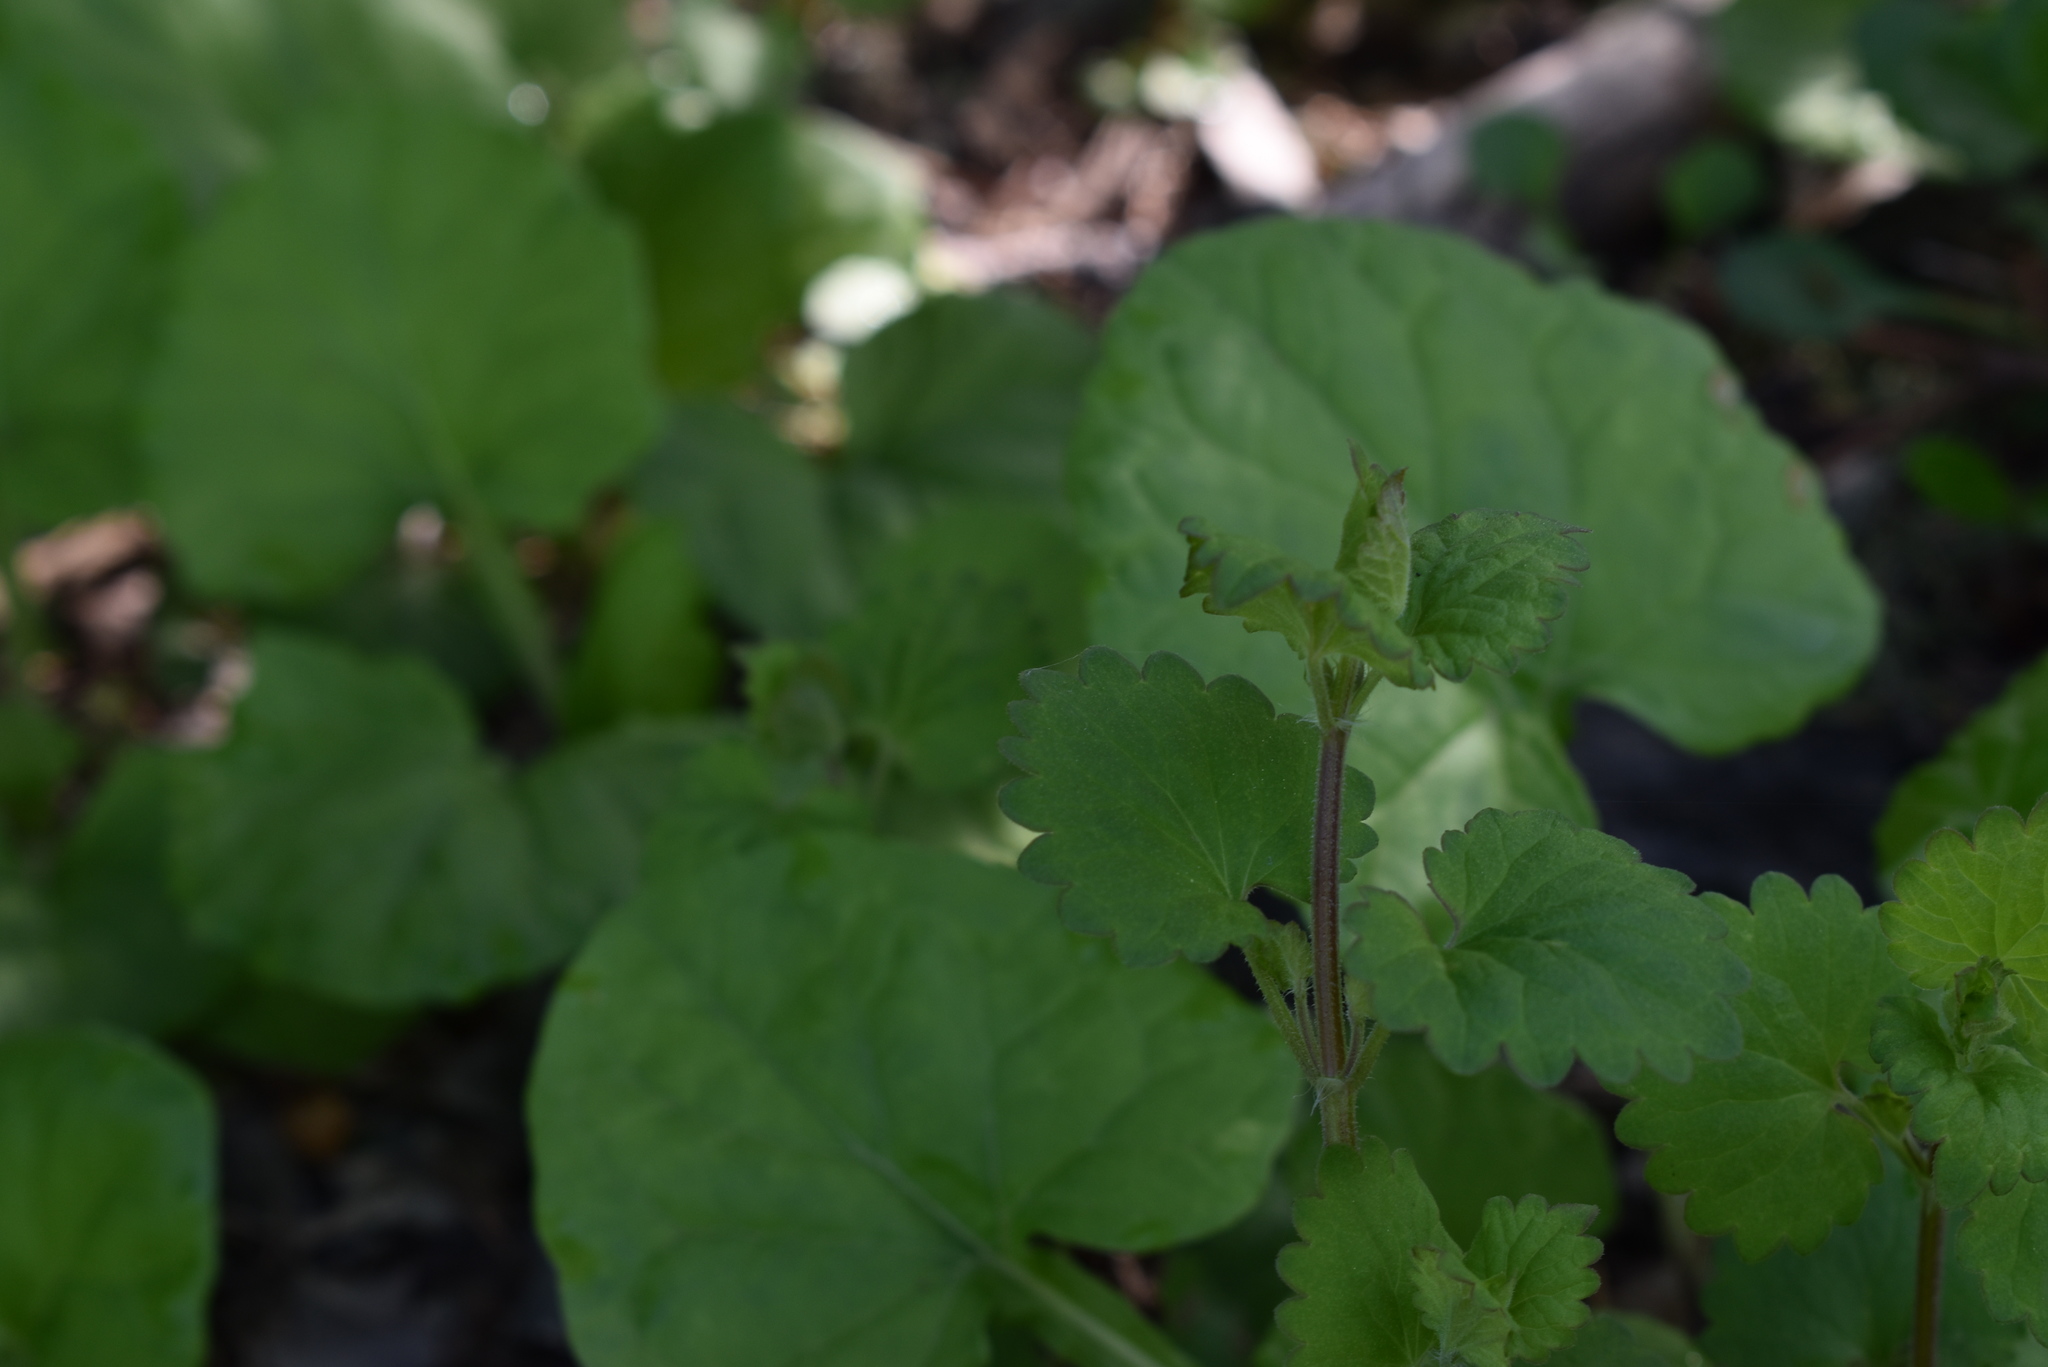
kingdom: Plantae
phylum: Tracheophyta
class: Magnoliopsida
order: Lamiales
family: Lamiaceae
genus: Glechoma
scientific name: Glechoma hederacea
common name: Ground ivy
